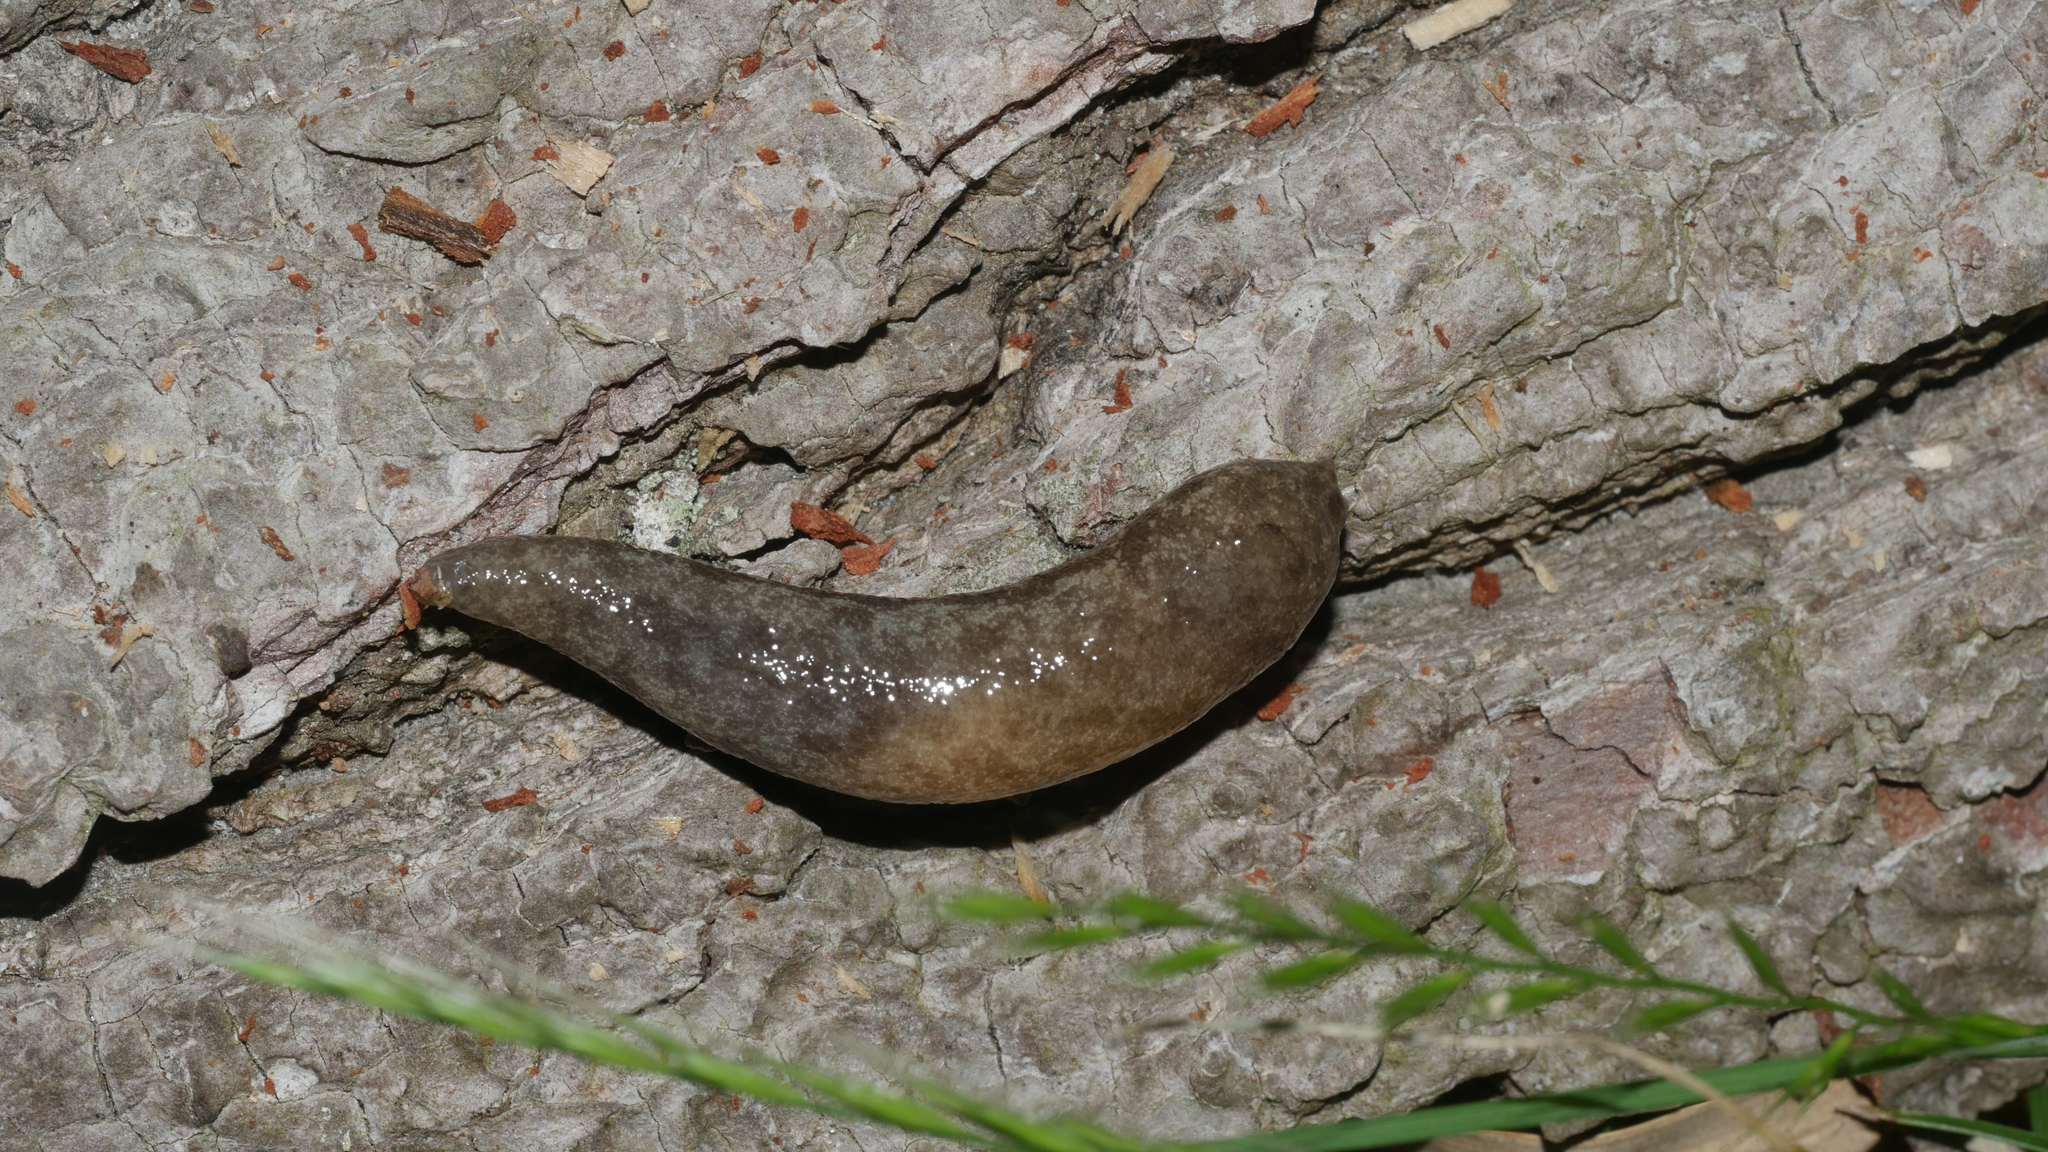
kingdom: Animalia
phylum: Mollusca
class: Gastropoda
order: Stylommatophora
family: Philomycidae
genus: Megapallifera
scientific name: Megapallifera mutabilis
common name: Changeable mantleslug
